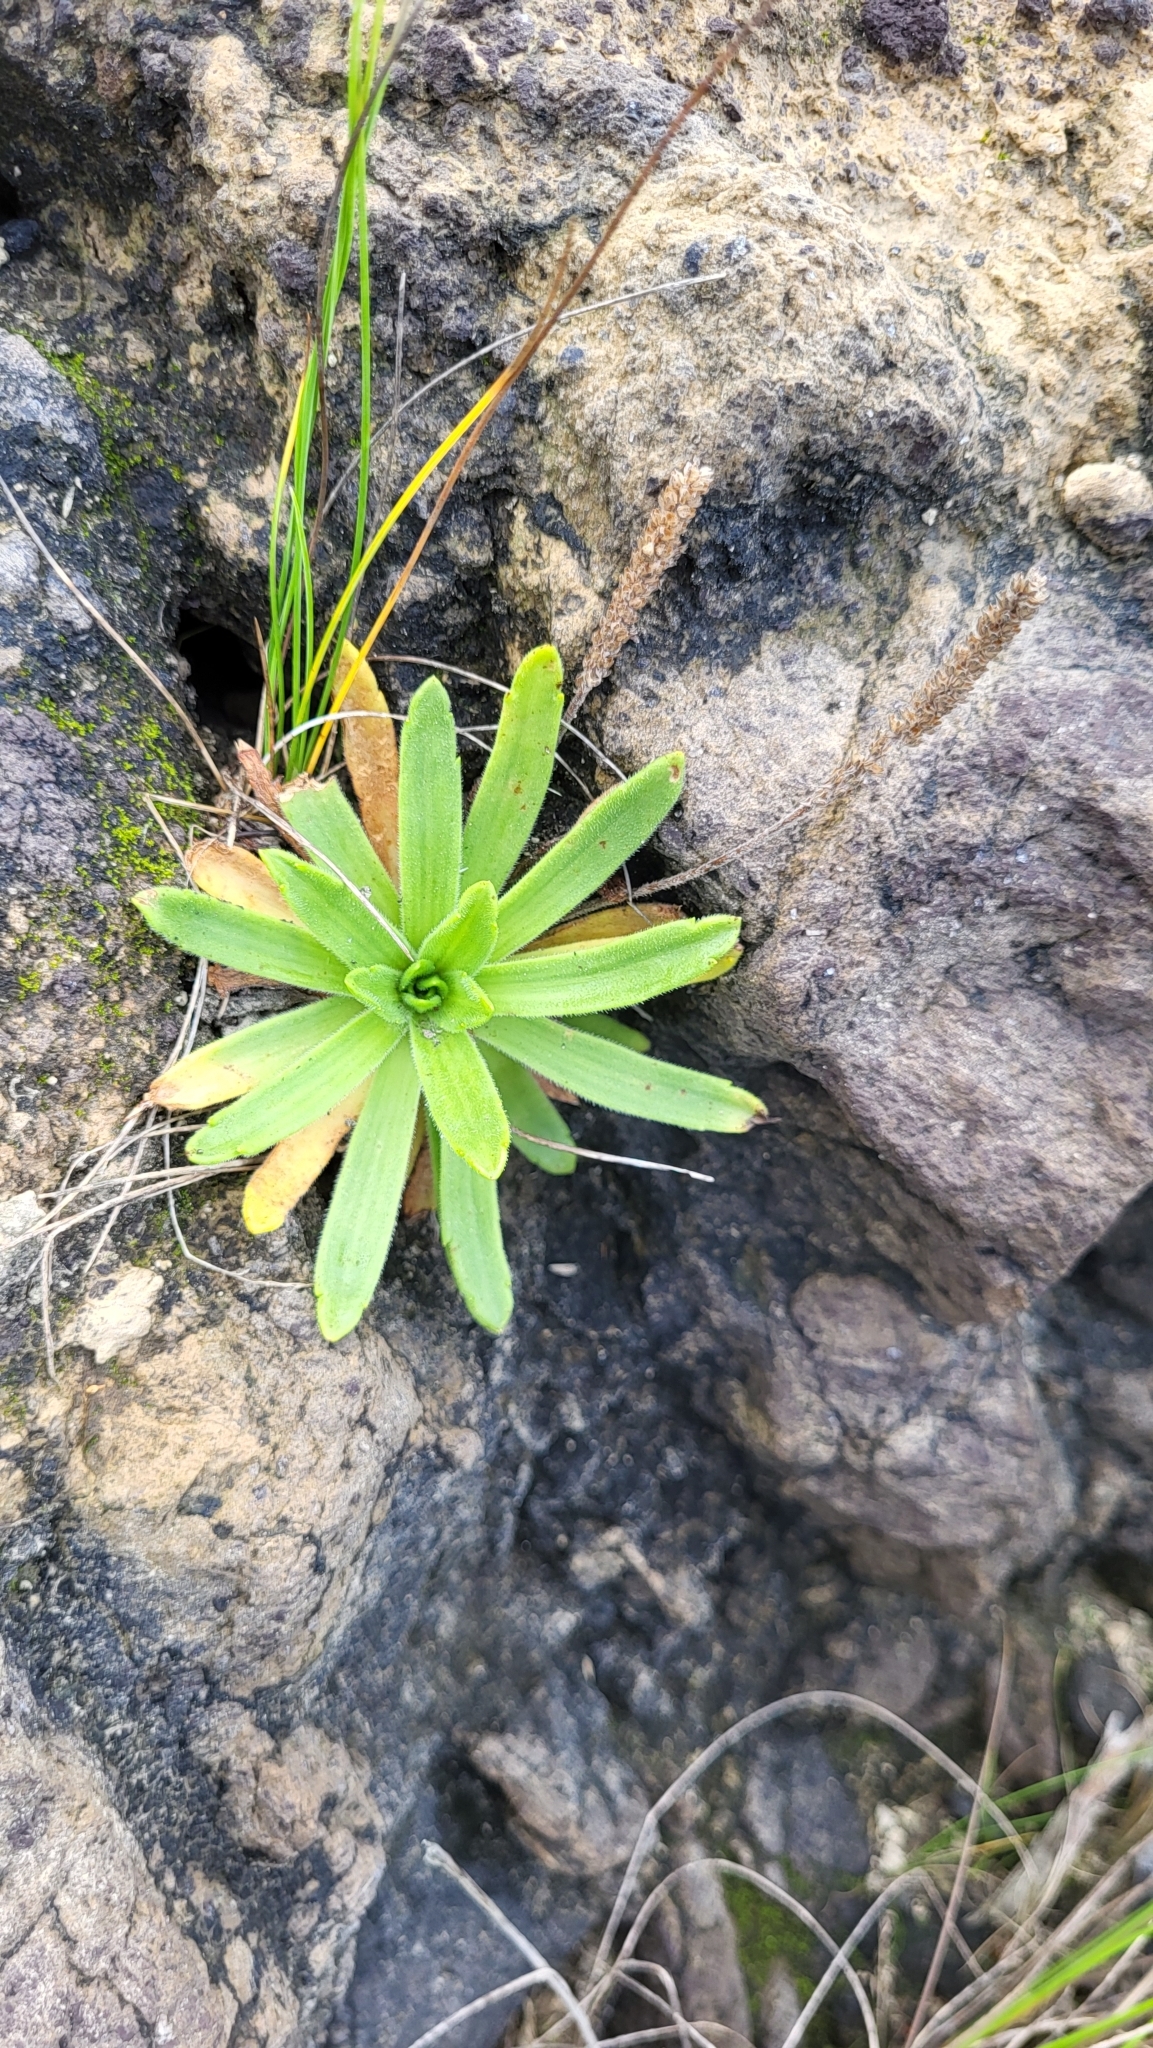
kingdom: Plantae
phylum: Tracheophyta
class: Magnoliopsida
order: Lamiales
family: Plantaginaceae
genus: Plantago
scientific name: Plantago coronopus
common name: Buck's-horn plantain
